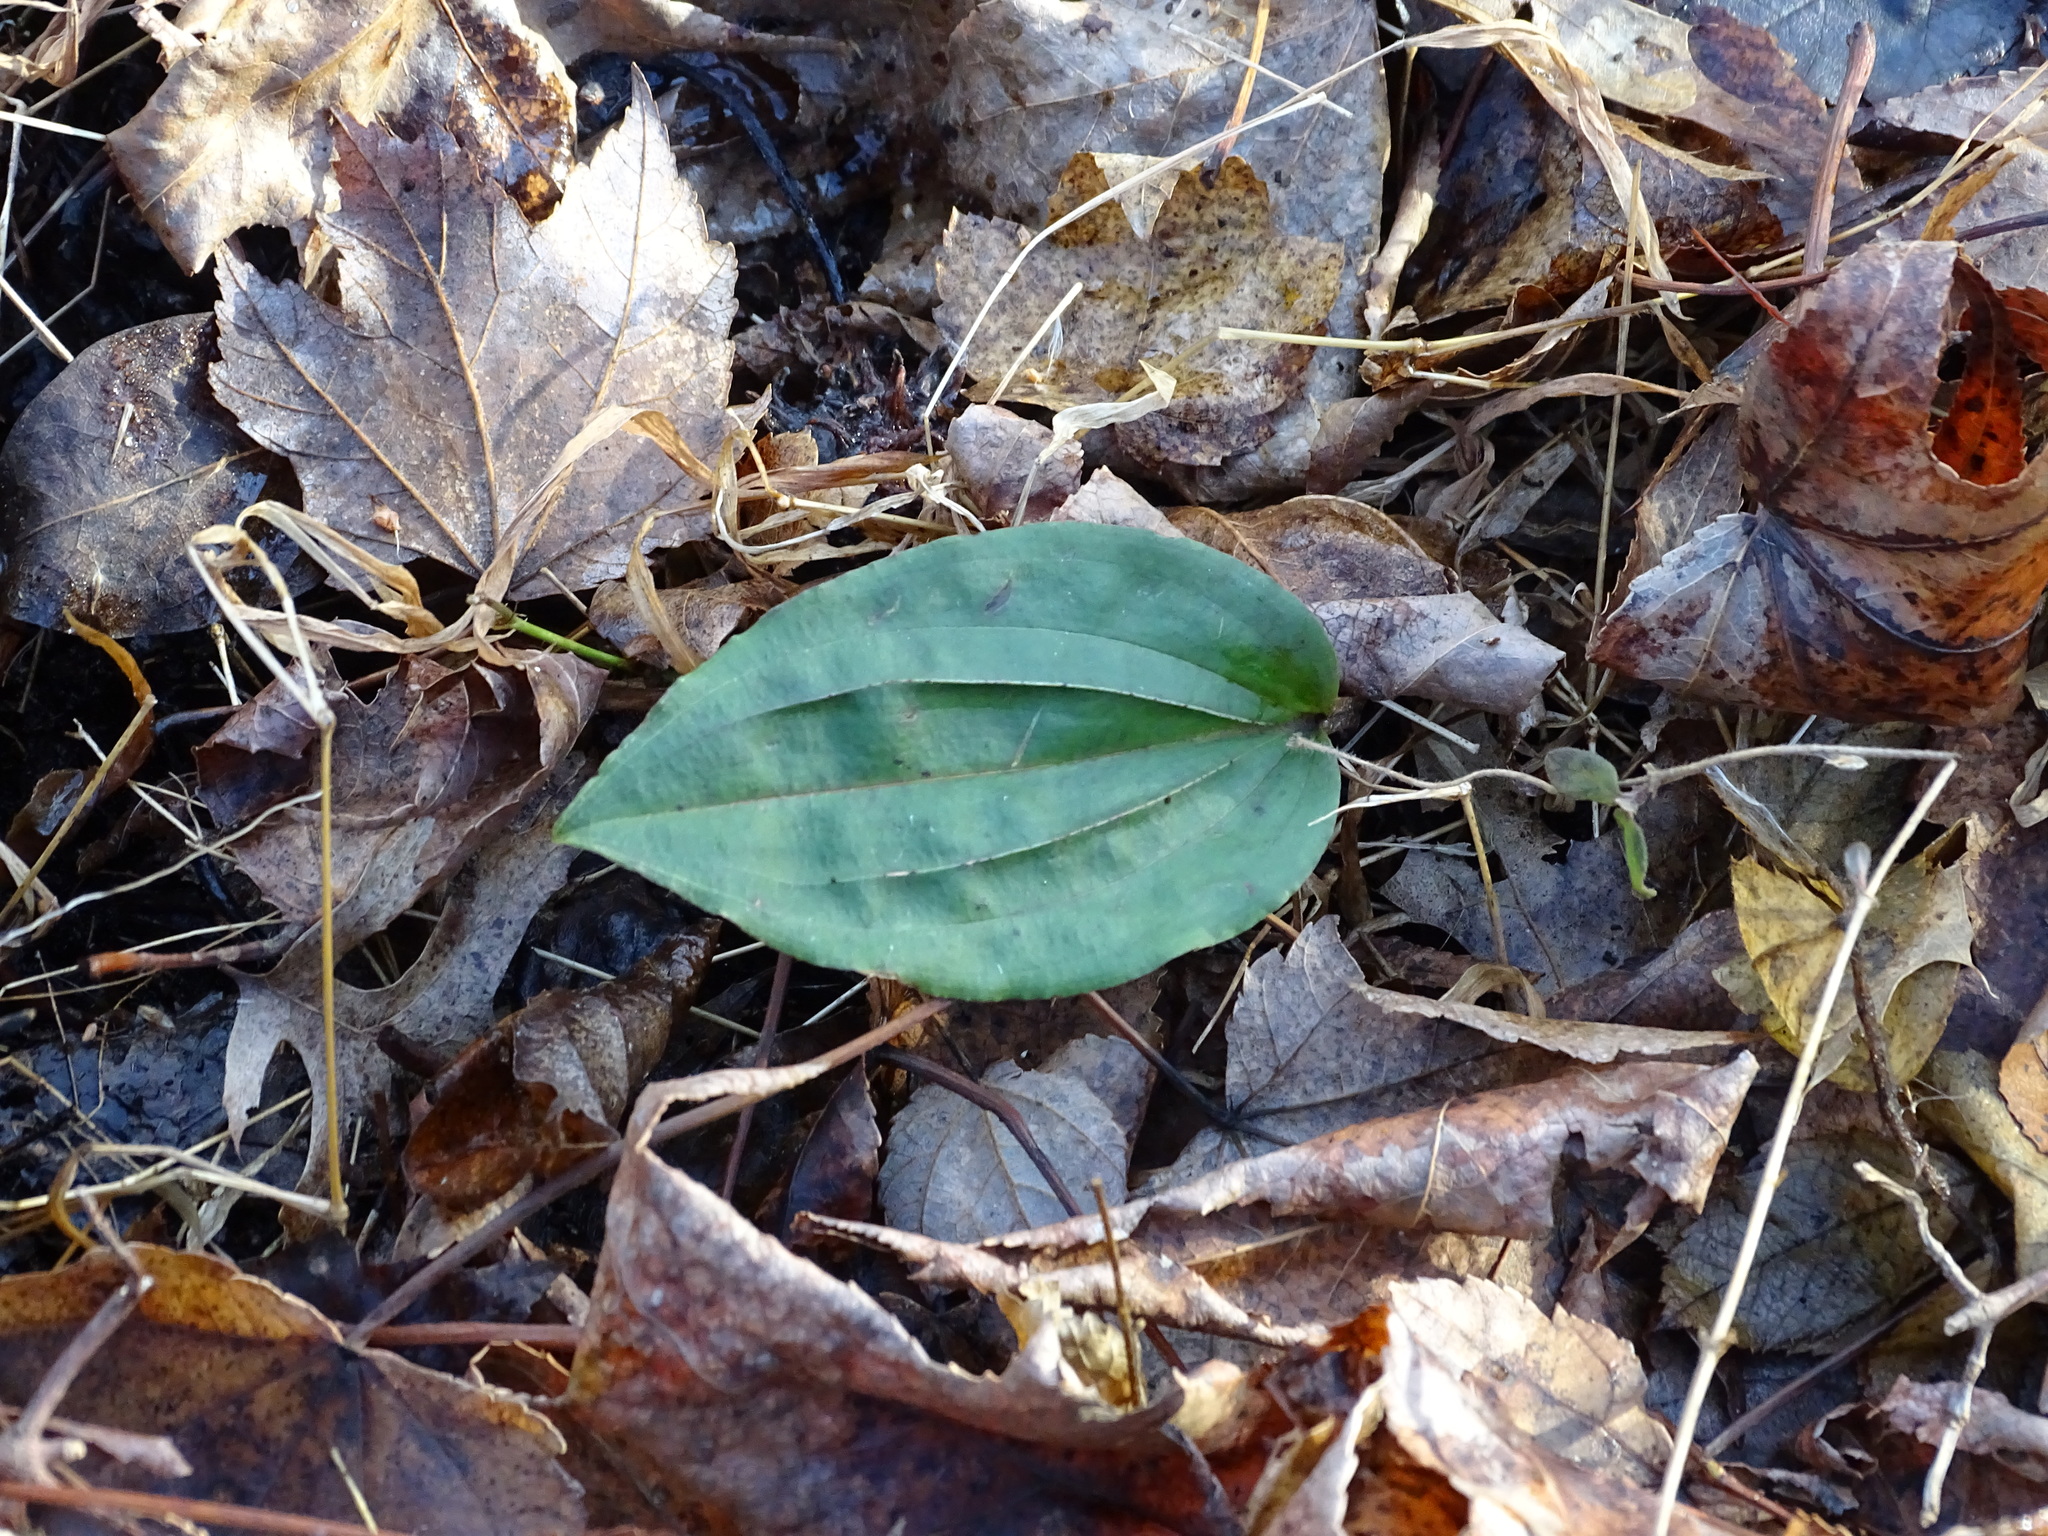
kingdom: Plantae
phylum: Tracheophyta
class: Liliopsida
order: Asparagales
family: Orchidaceae
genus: Tipularia
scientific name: Tipularia discolor
